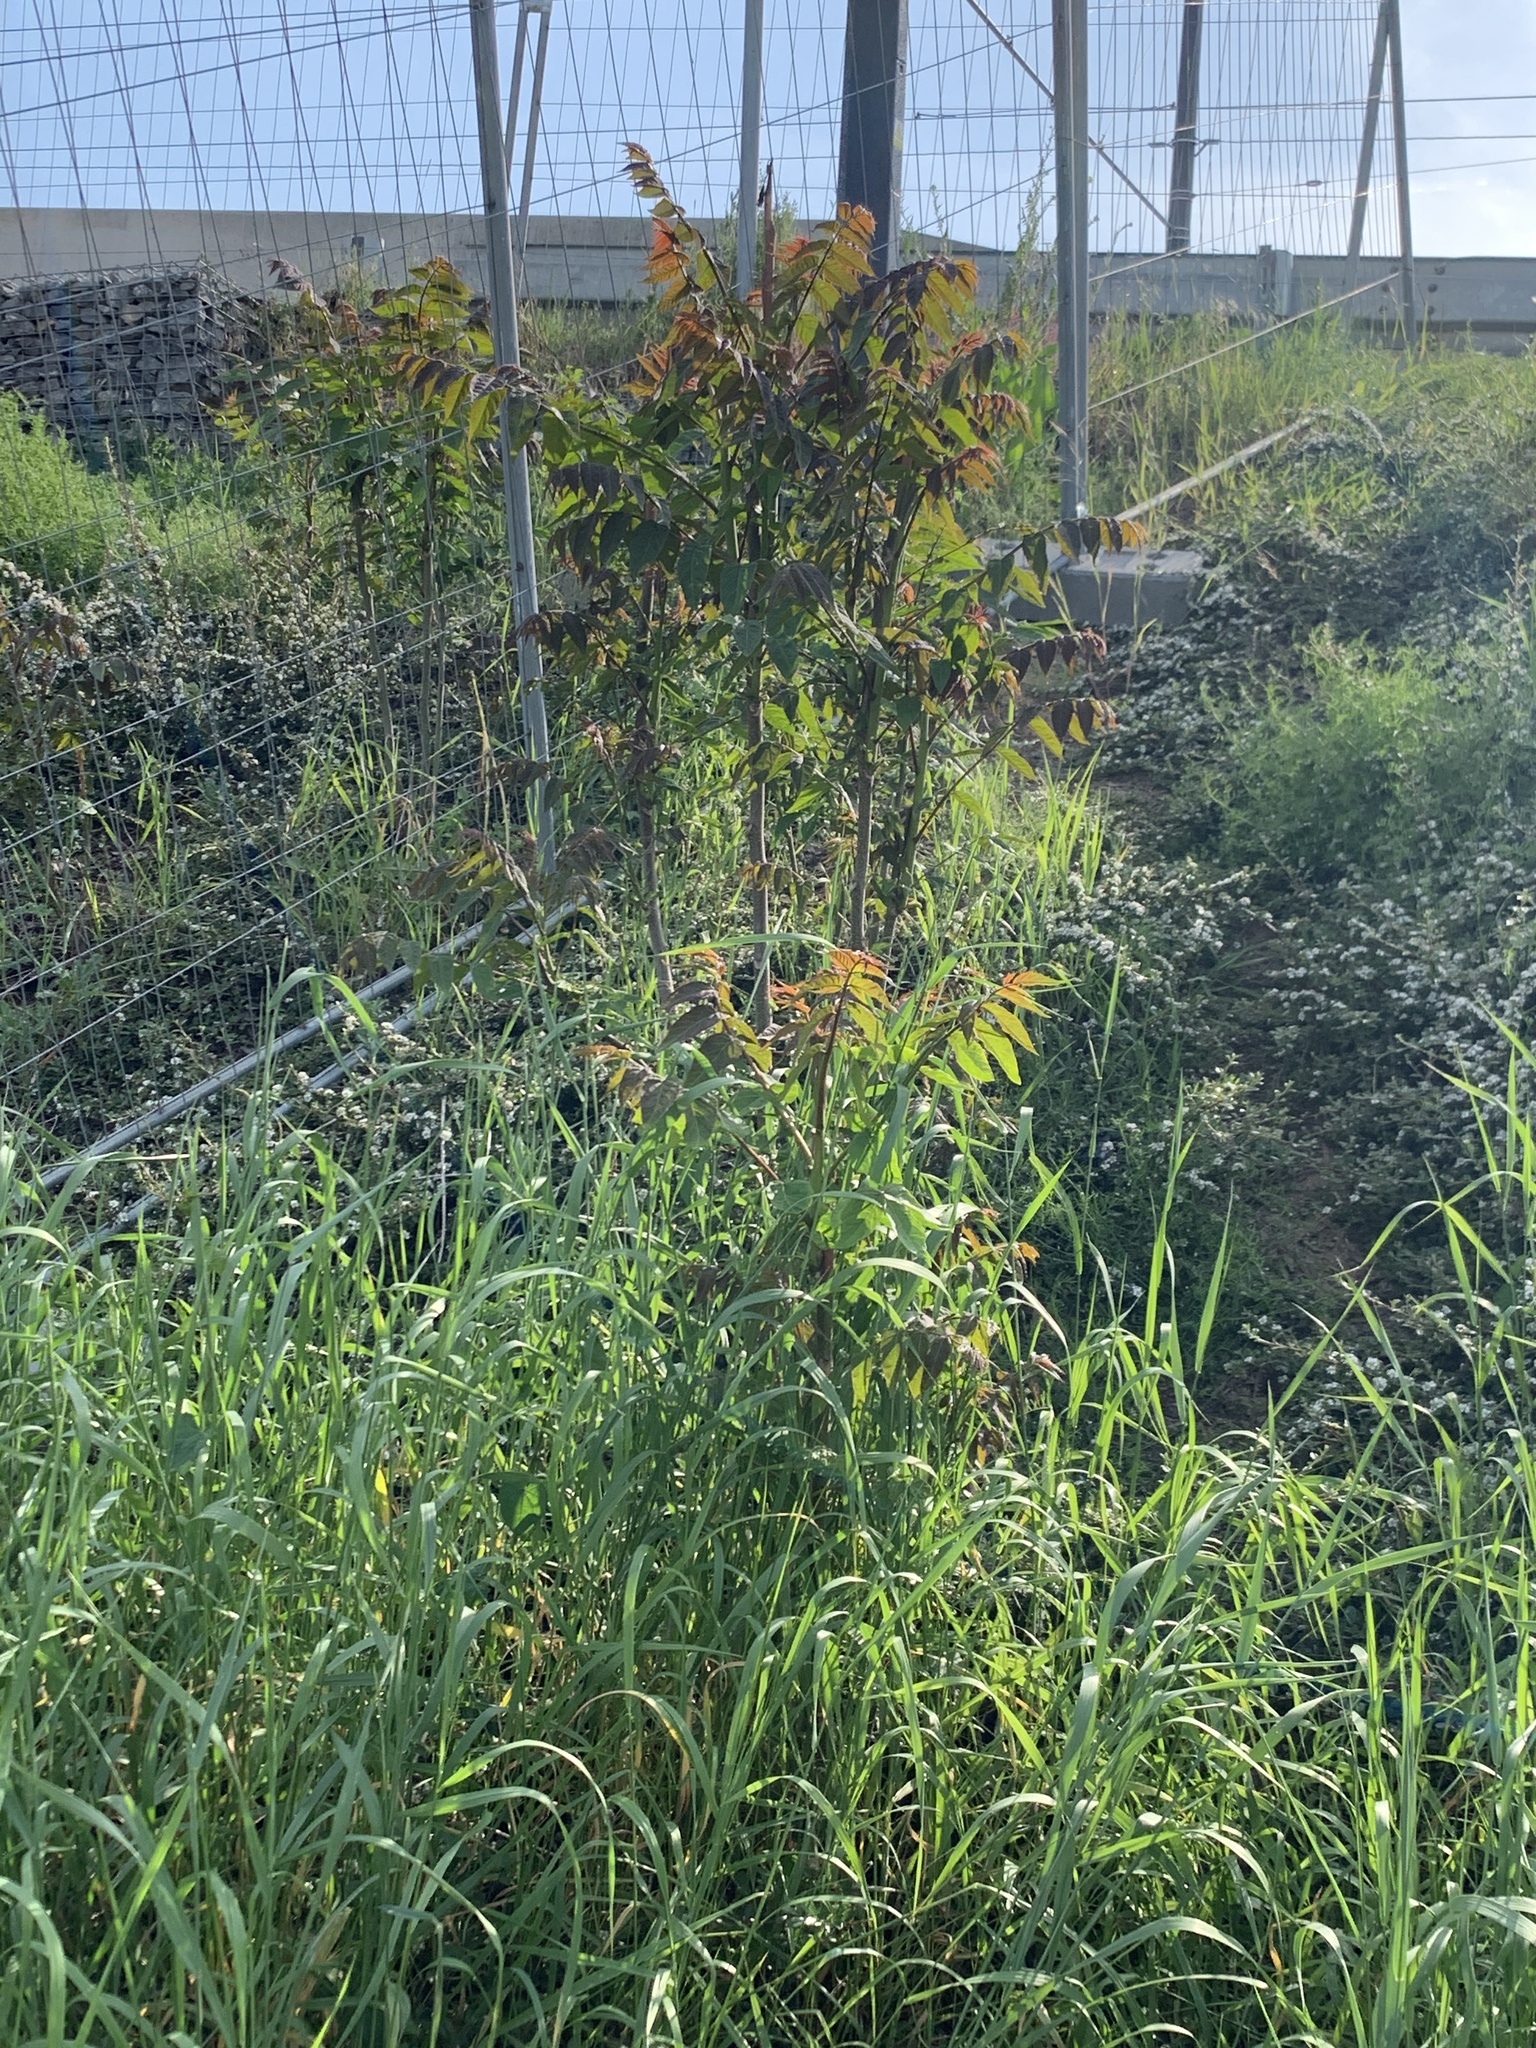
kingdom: Plantae
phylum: Tracheophyta
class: Magnoliopsida
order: Sapindales
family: Simaroubaceae
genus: Ailanthus
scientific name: Ailanthus altissima
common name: Tree-of-heaven
